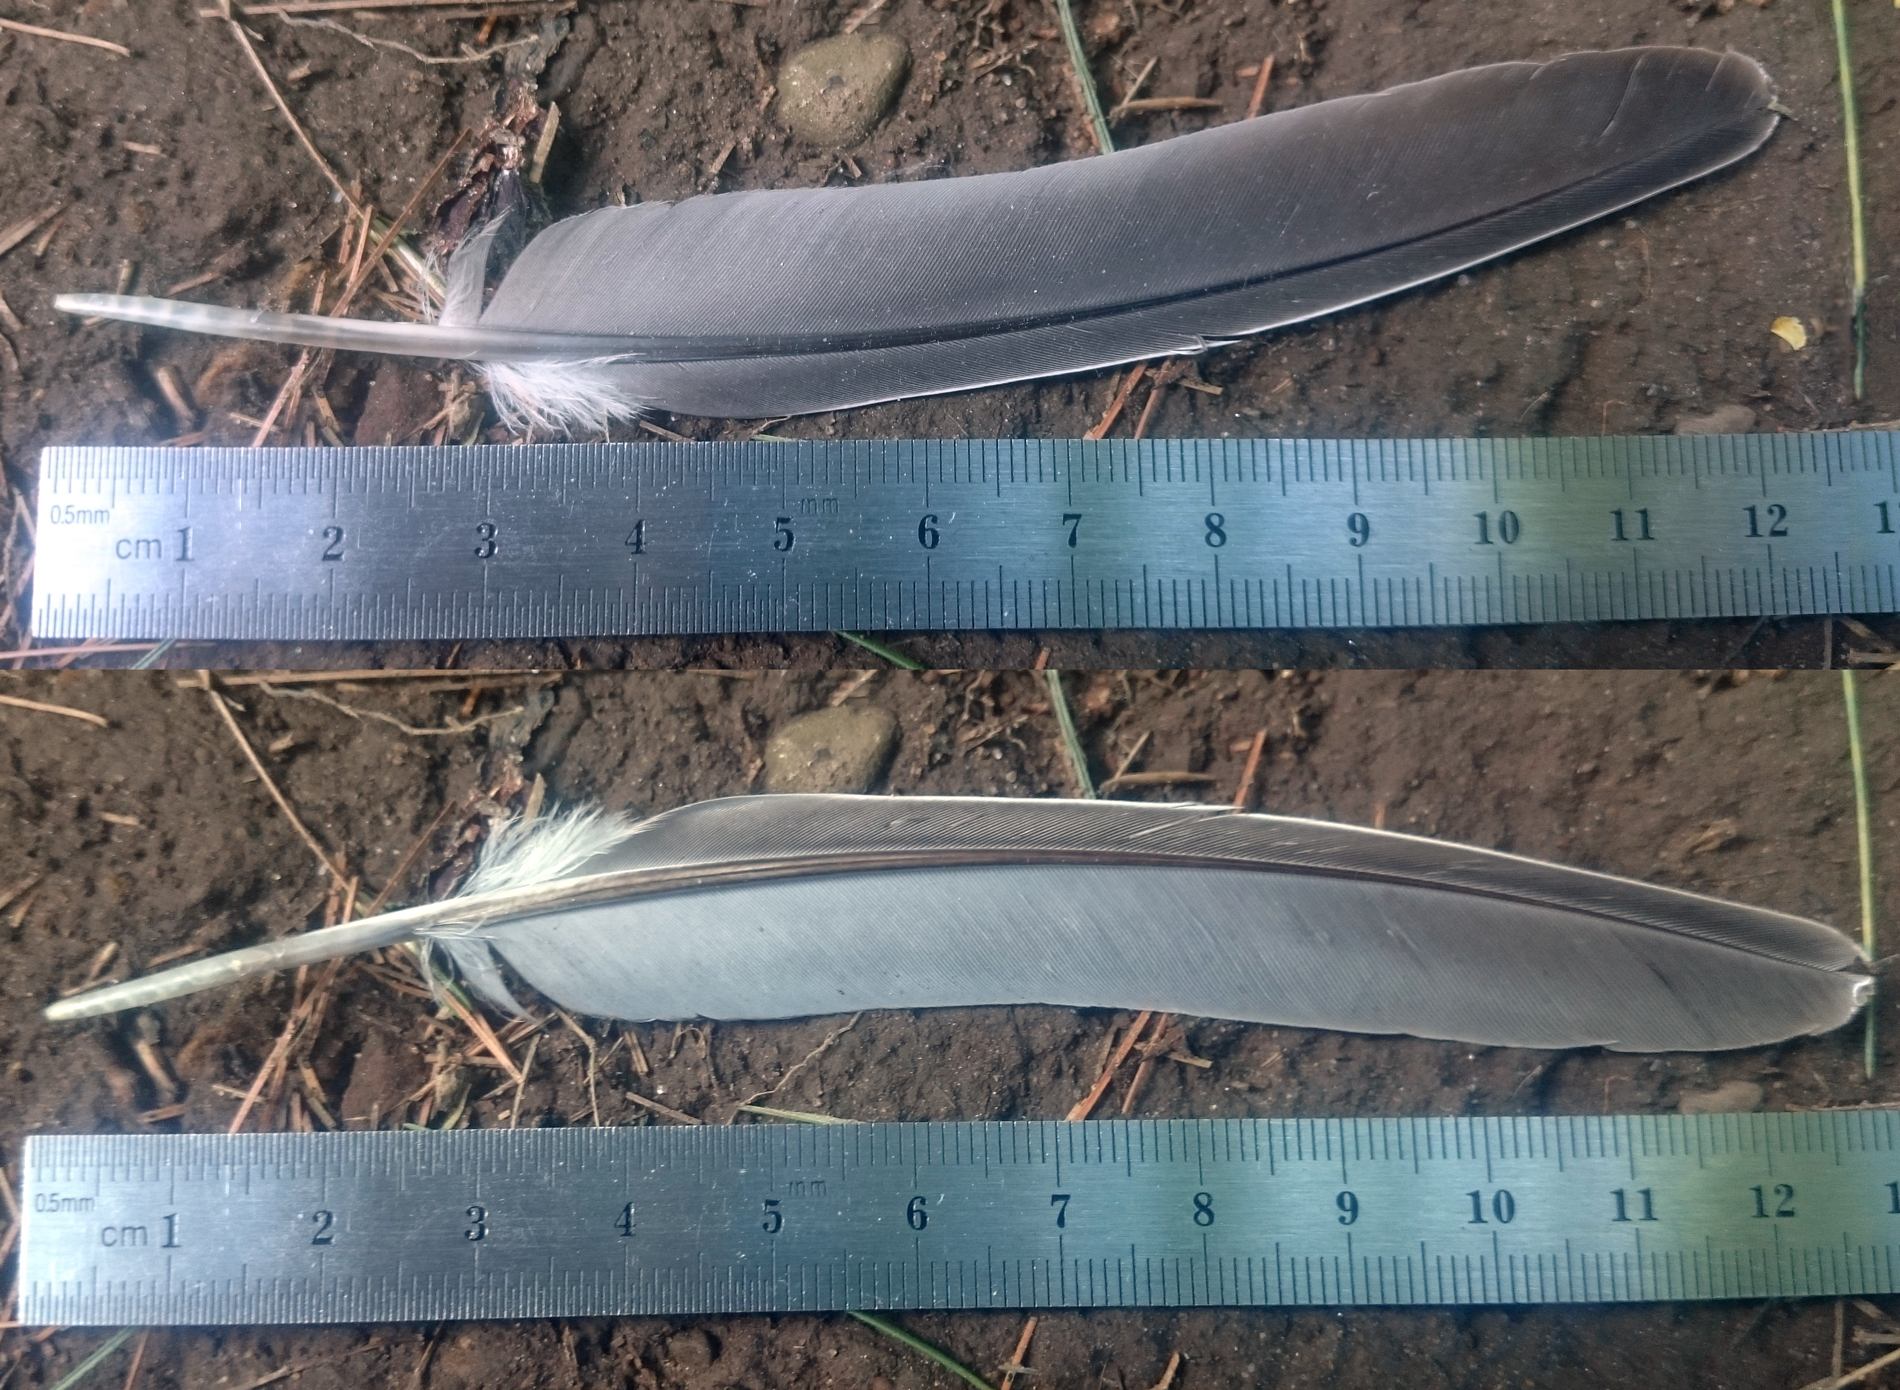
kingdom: Animalia
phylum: Chordata
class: Aves
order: Columbiformes
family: Columbidae
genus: Zenaida
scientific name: Zenaida macroura
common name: Mourning dove
